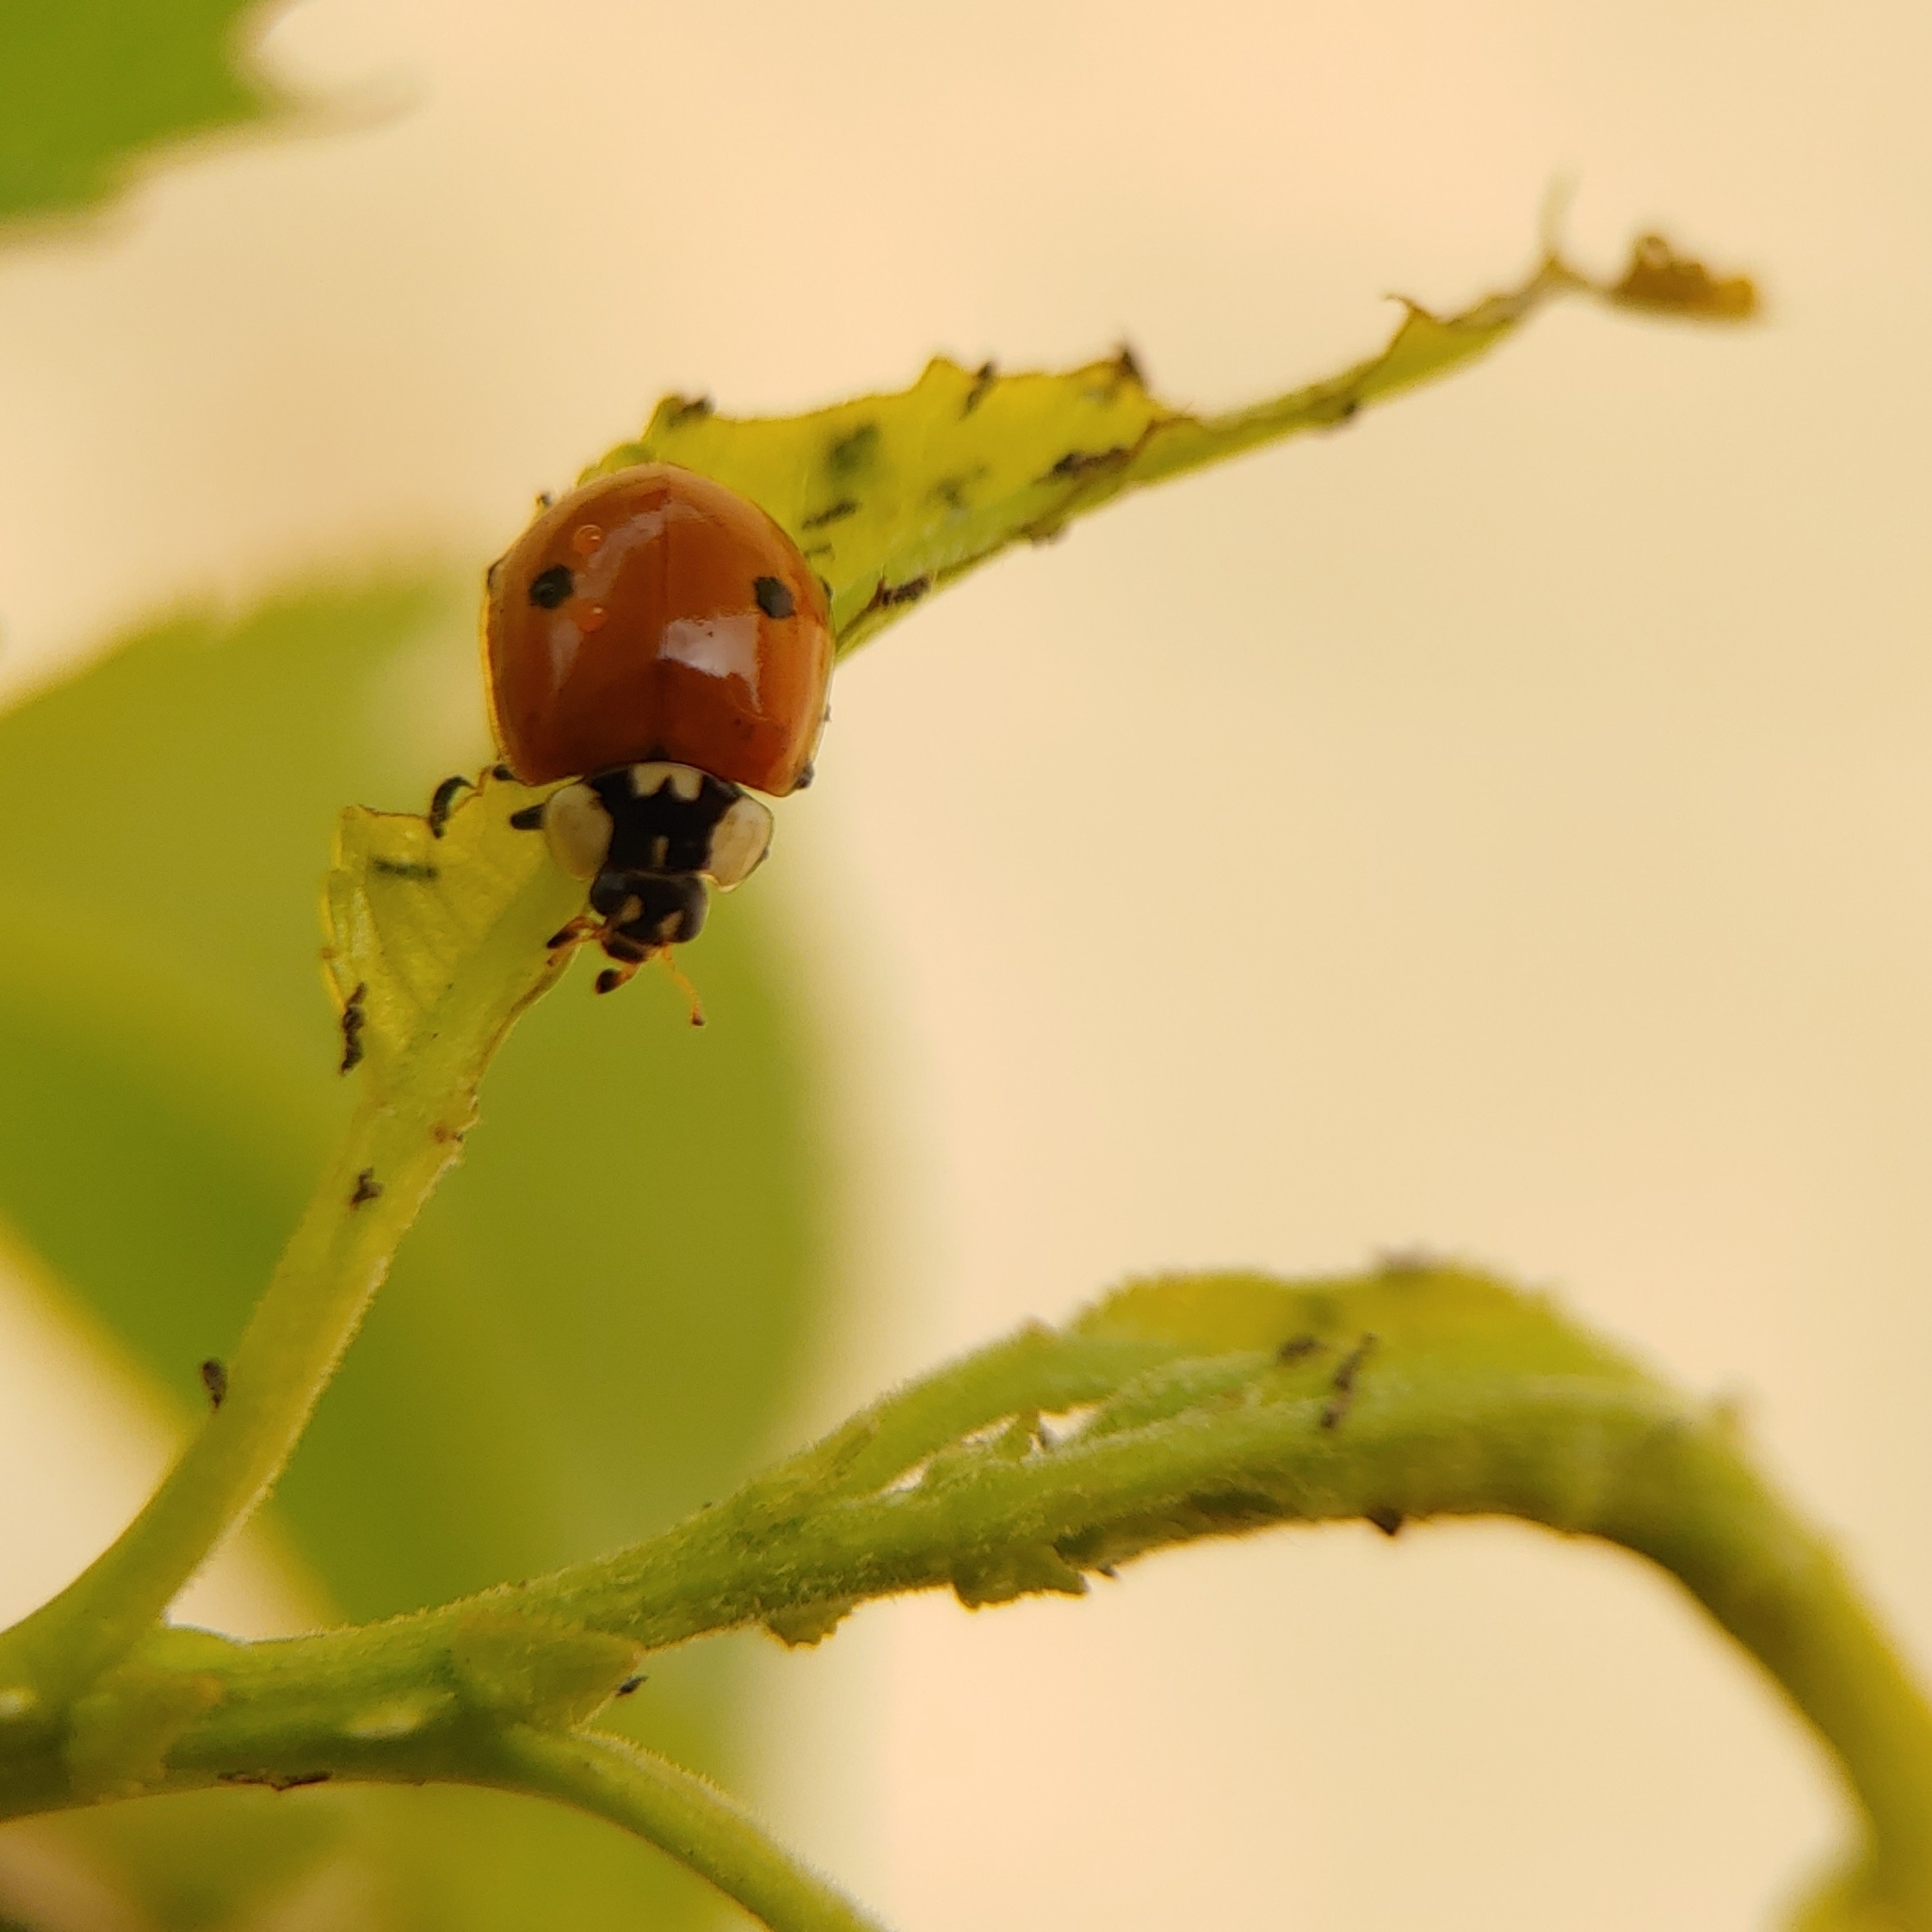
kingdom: Animalia
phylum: Arthropoda
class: Insecta
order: Coleoptera
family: Coccinellidae
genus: Adalia
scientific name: Adalia bipunctata
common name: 2-spot ladybird
